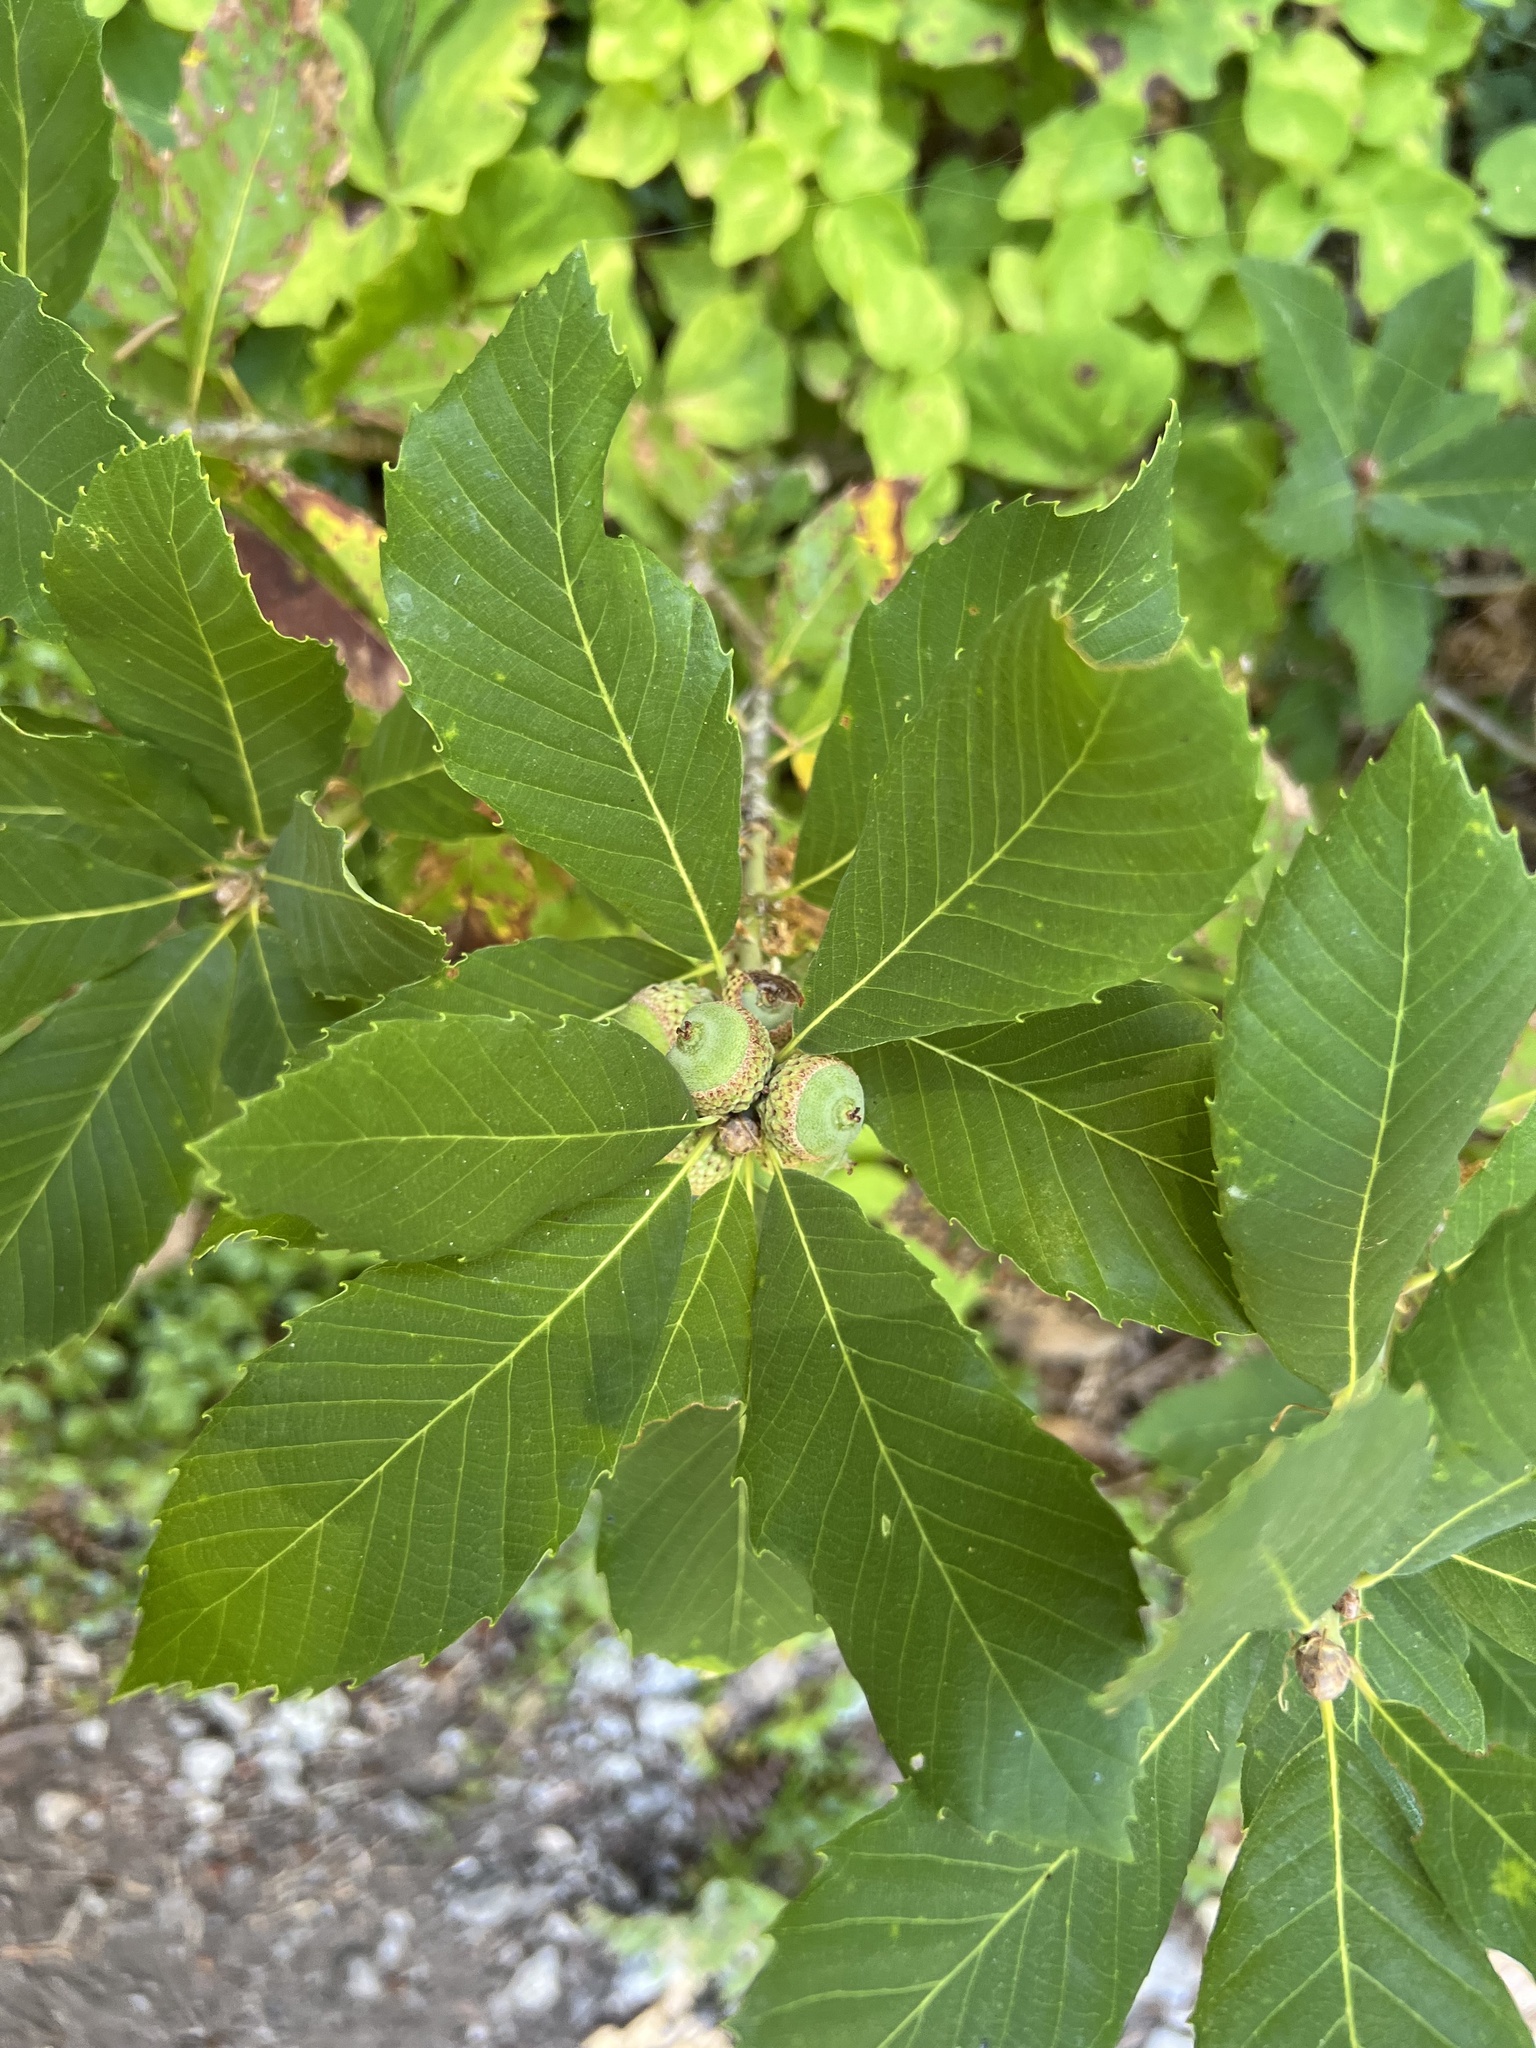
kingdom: Plantae
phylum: Tracheophyta
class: Magnoliopsida
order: Fagales
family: Fagaceae
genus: Quercus
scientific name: Quercus sadleriana
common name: Deer oak
